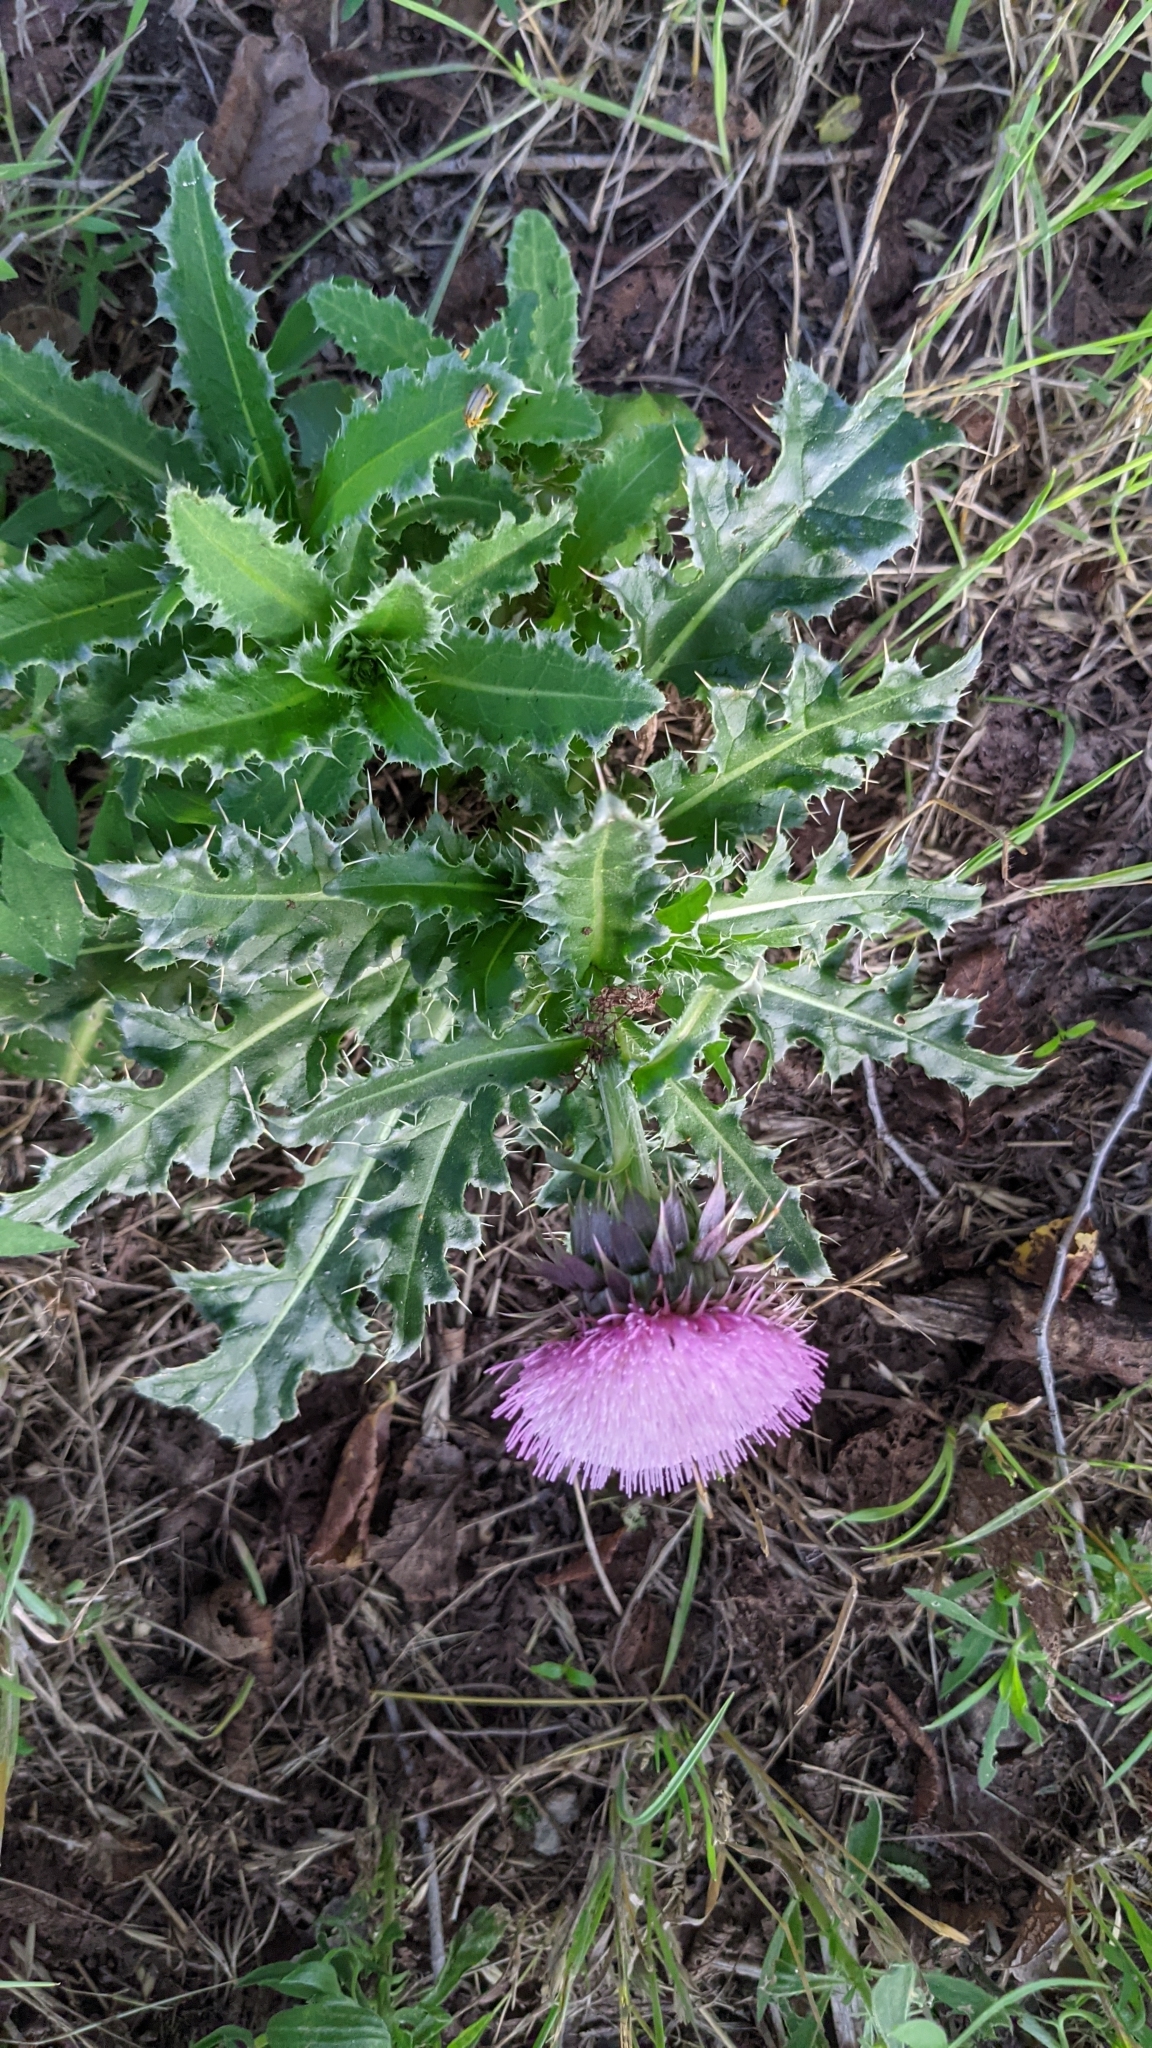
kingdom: Plantae
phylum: Tracheophyta
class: Magnoliopsida
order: Asterales
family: Asteraceae
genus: Carduus
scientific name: Carduus nutans
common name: Musk thistle
